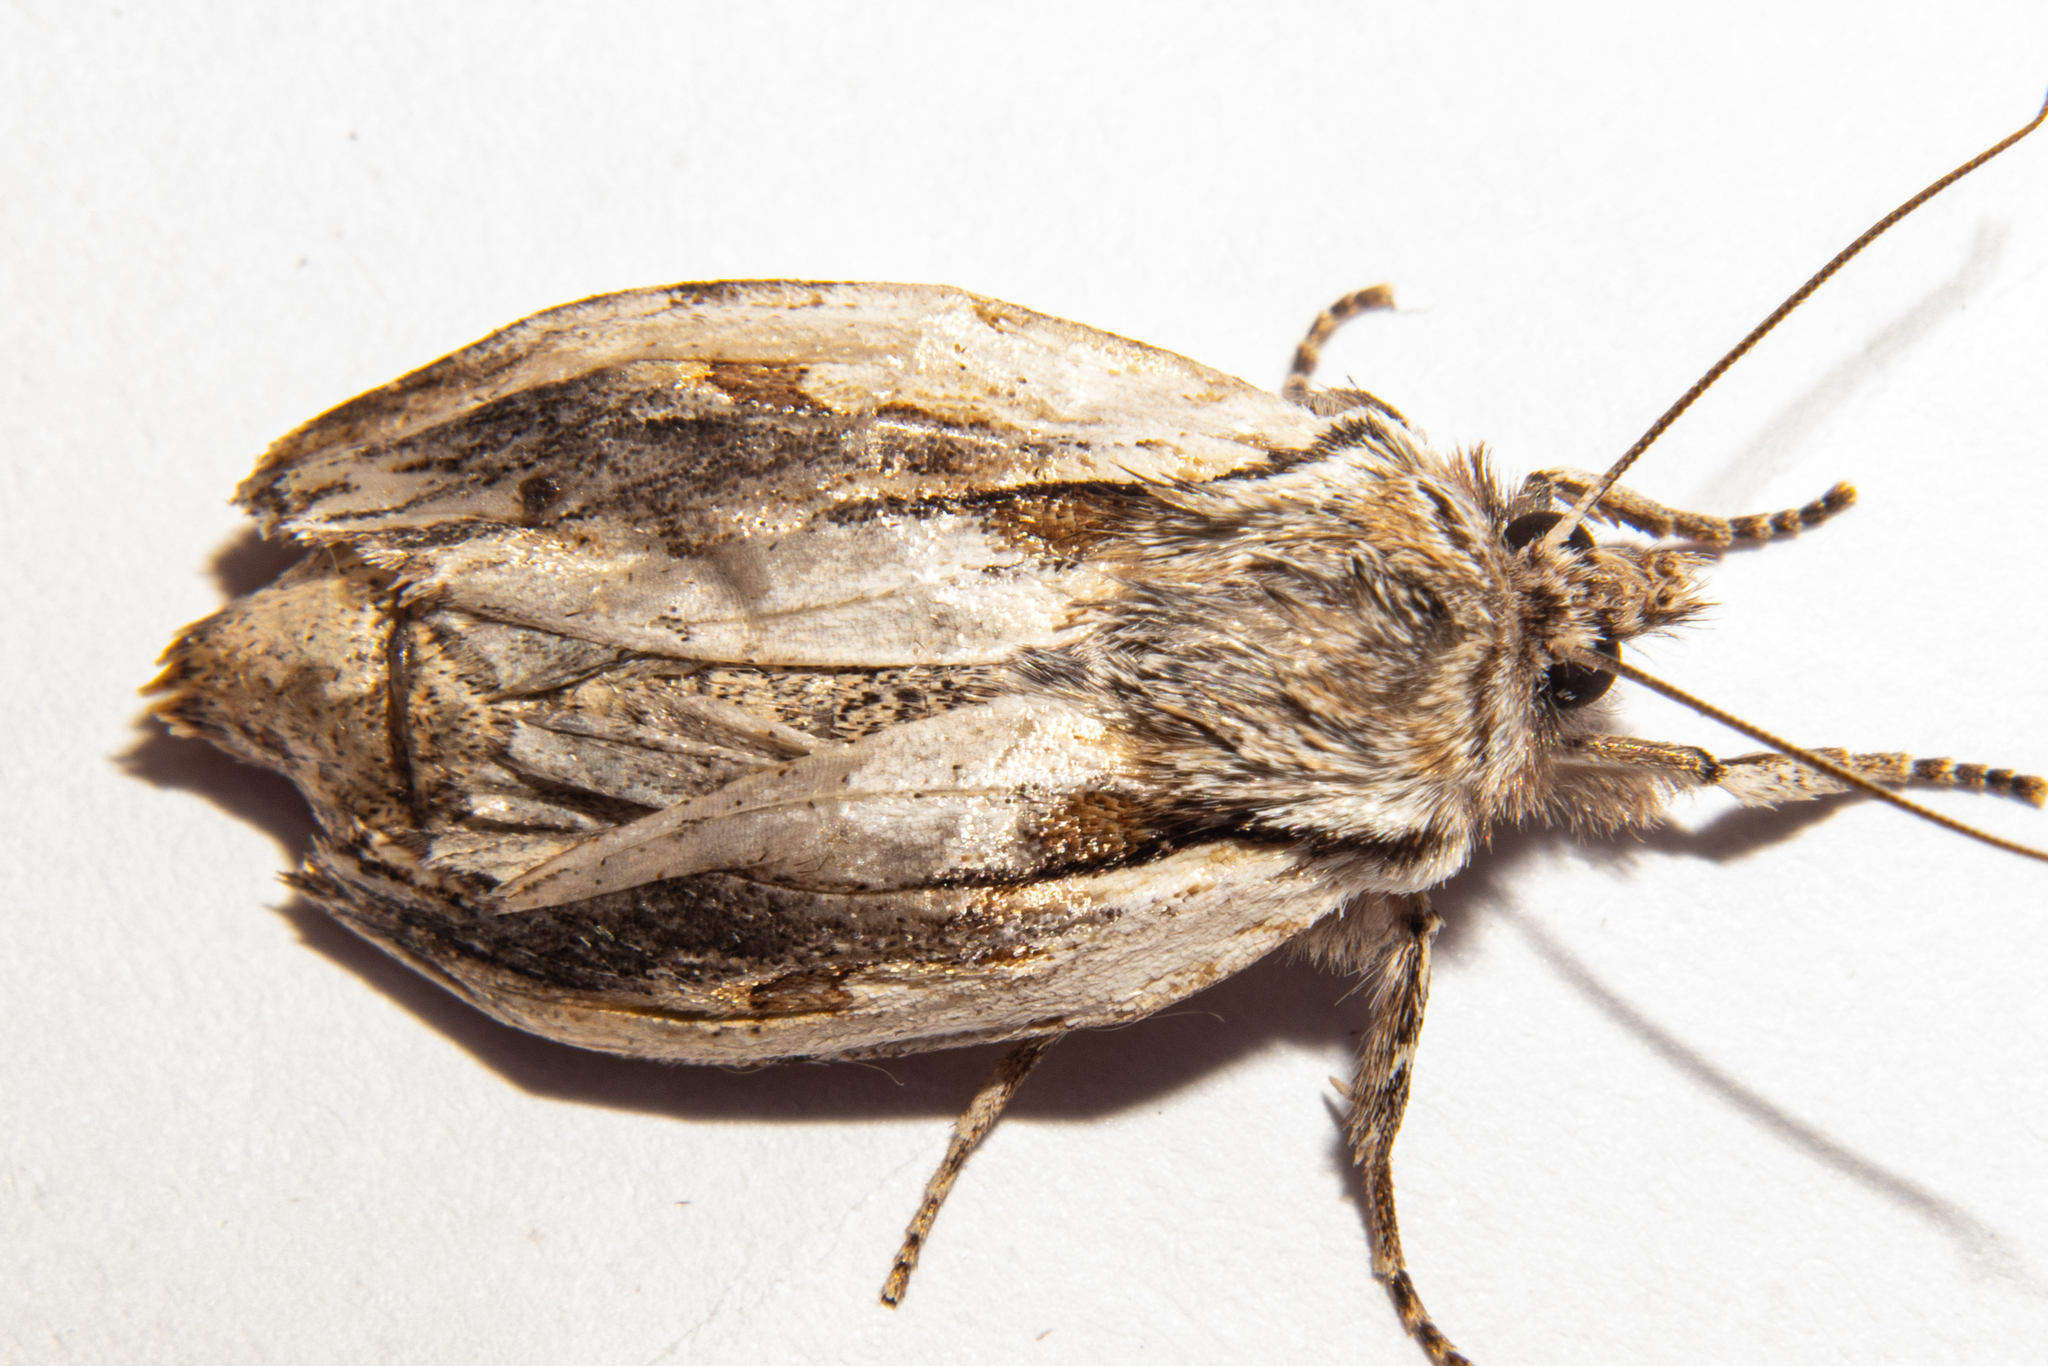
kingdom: Animalia
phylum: Arthropoda
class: Insecta
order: Lepidoptera
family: Noctuidae
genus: Ichneutica
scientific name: Ichneutica
